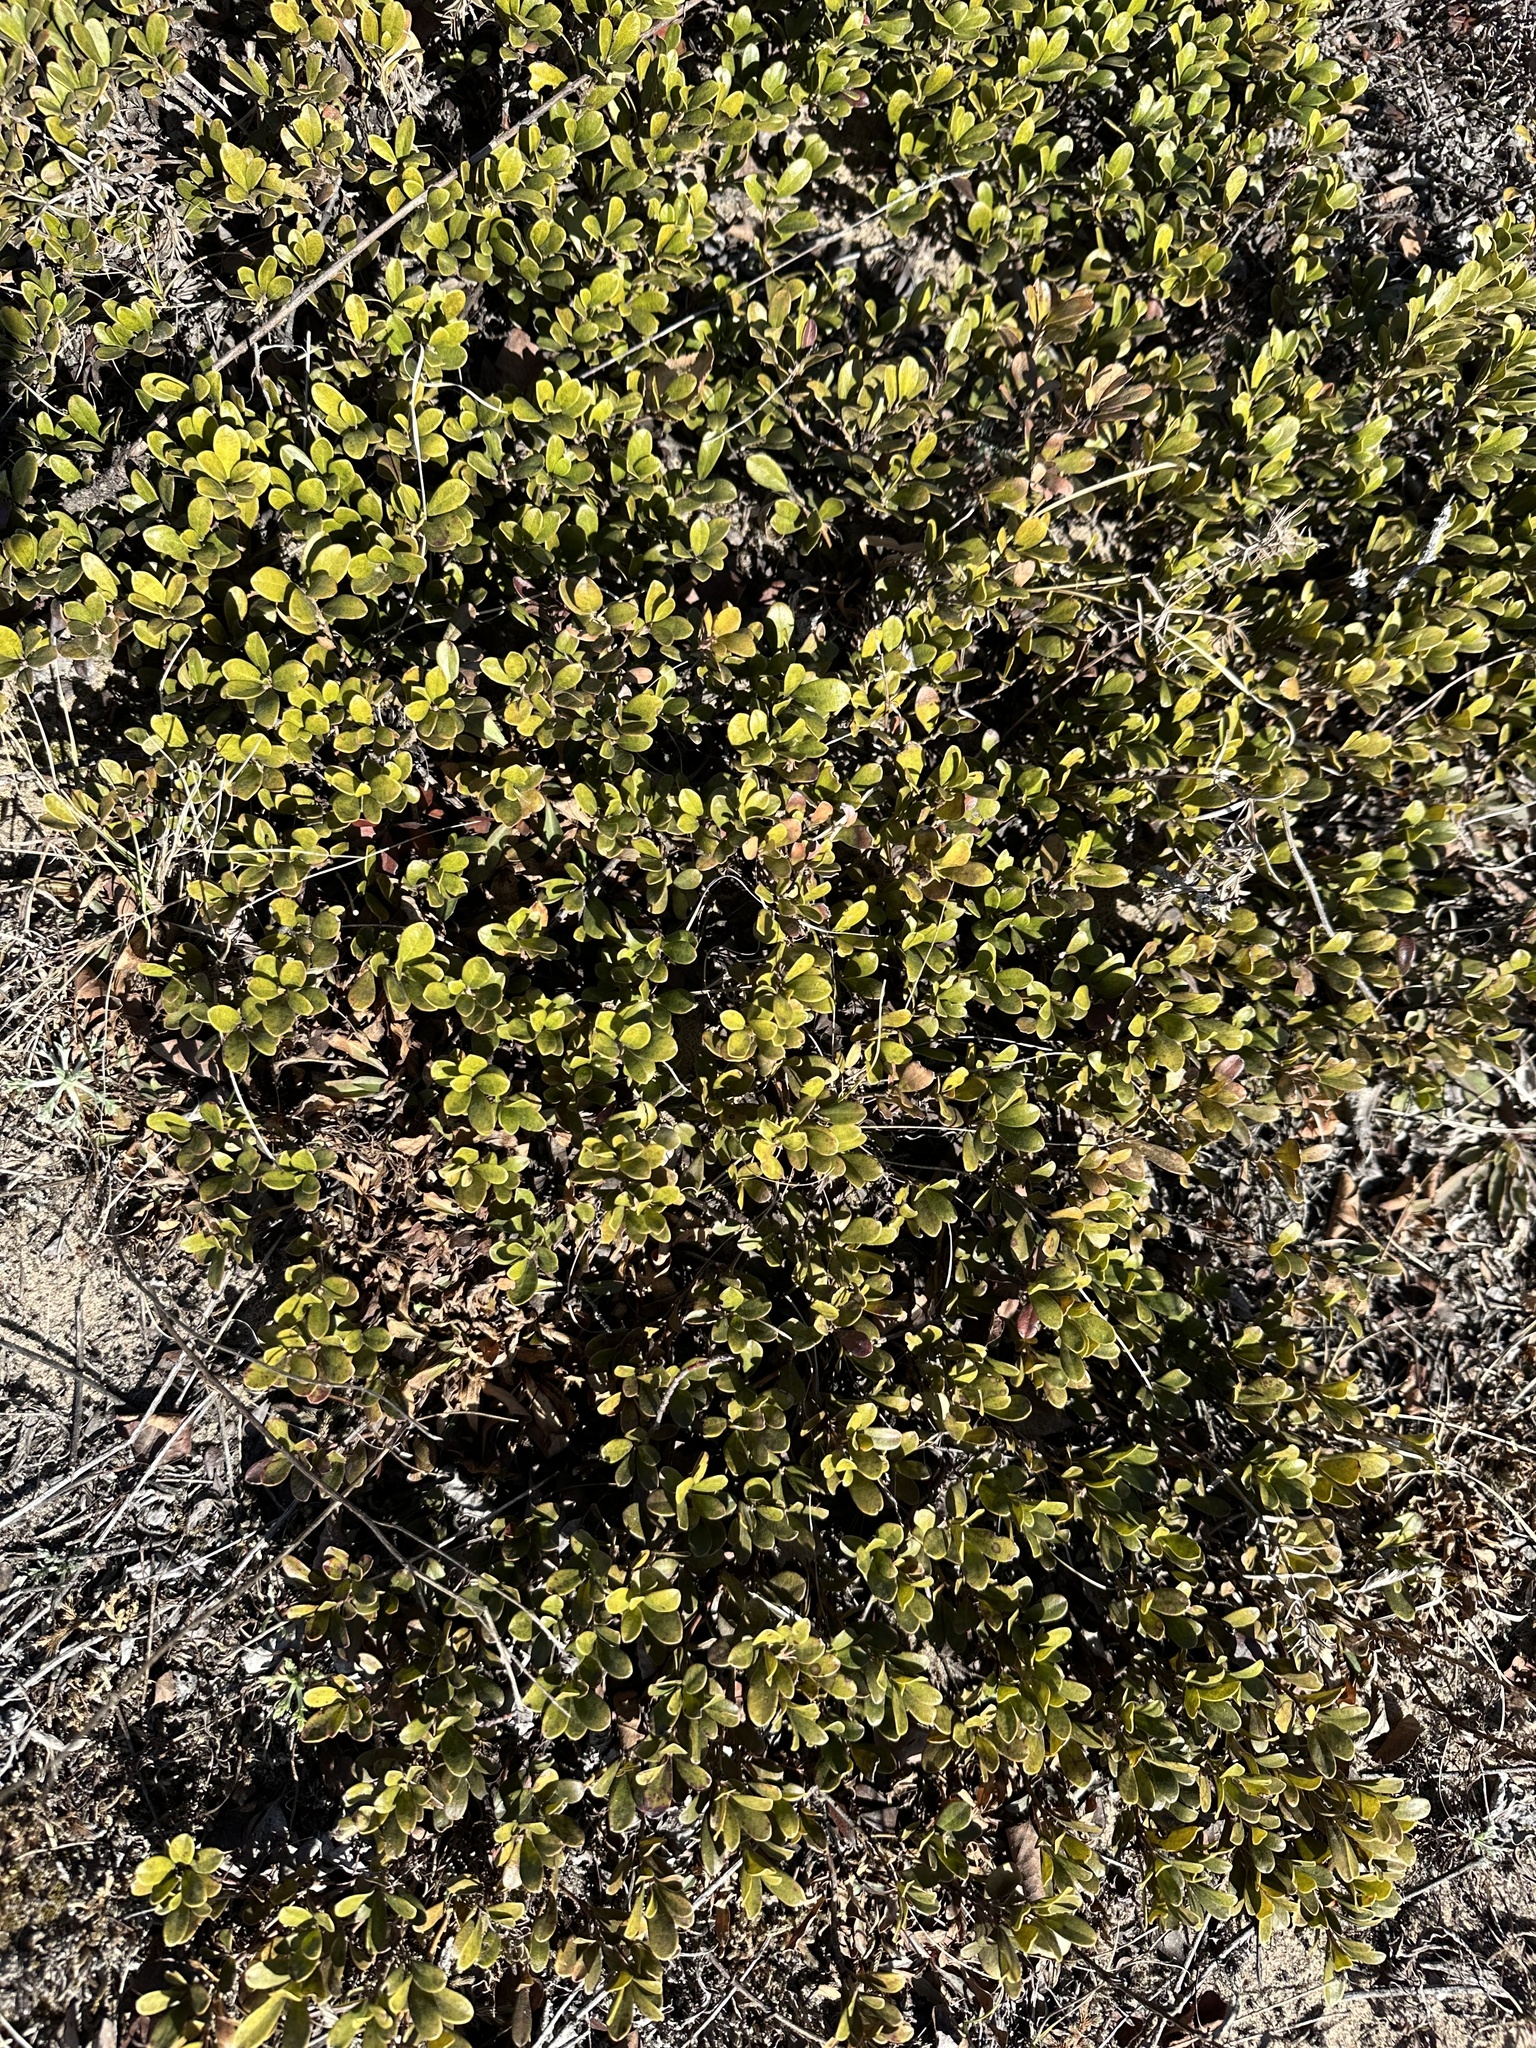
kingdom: Plantae
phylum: Tracheophyta
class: Magnoliopsida
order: Ericales
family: Ericaceae
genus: Arctostaphylos
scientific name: Arctostaphylos uva-ursi
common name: Bearberry
